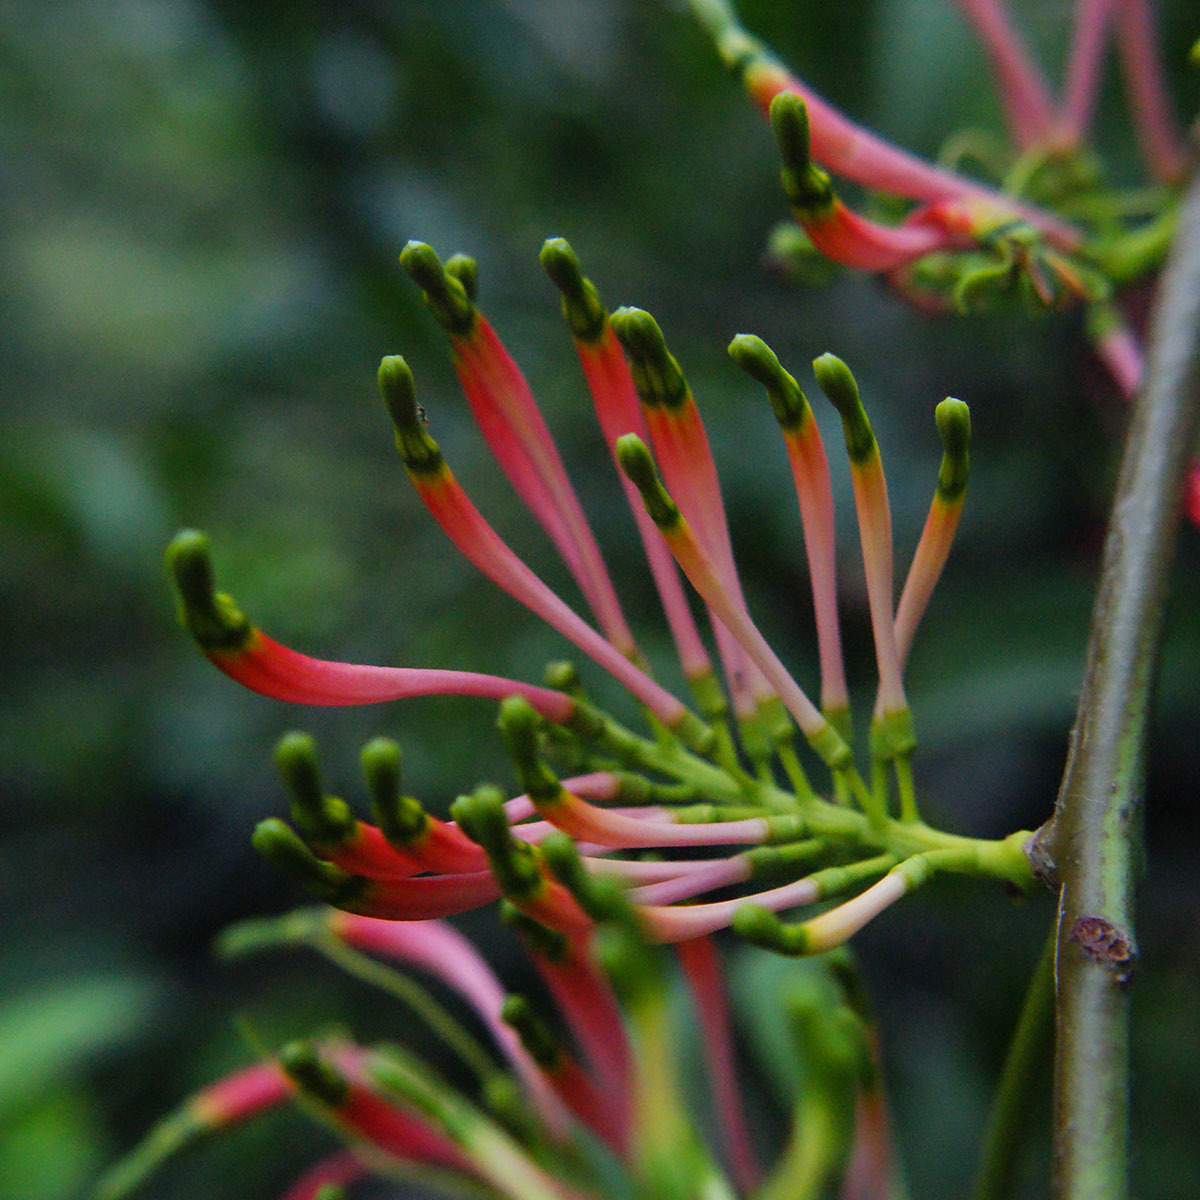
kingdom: Plantae
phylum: Tracheophyta
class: Magnoliopsida
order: Santalales
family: Loranthaceae
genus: Dendrophthoe
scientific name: Dendrophthoe falcata
